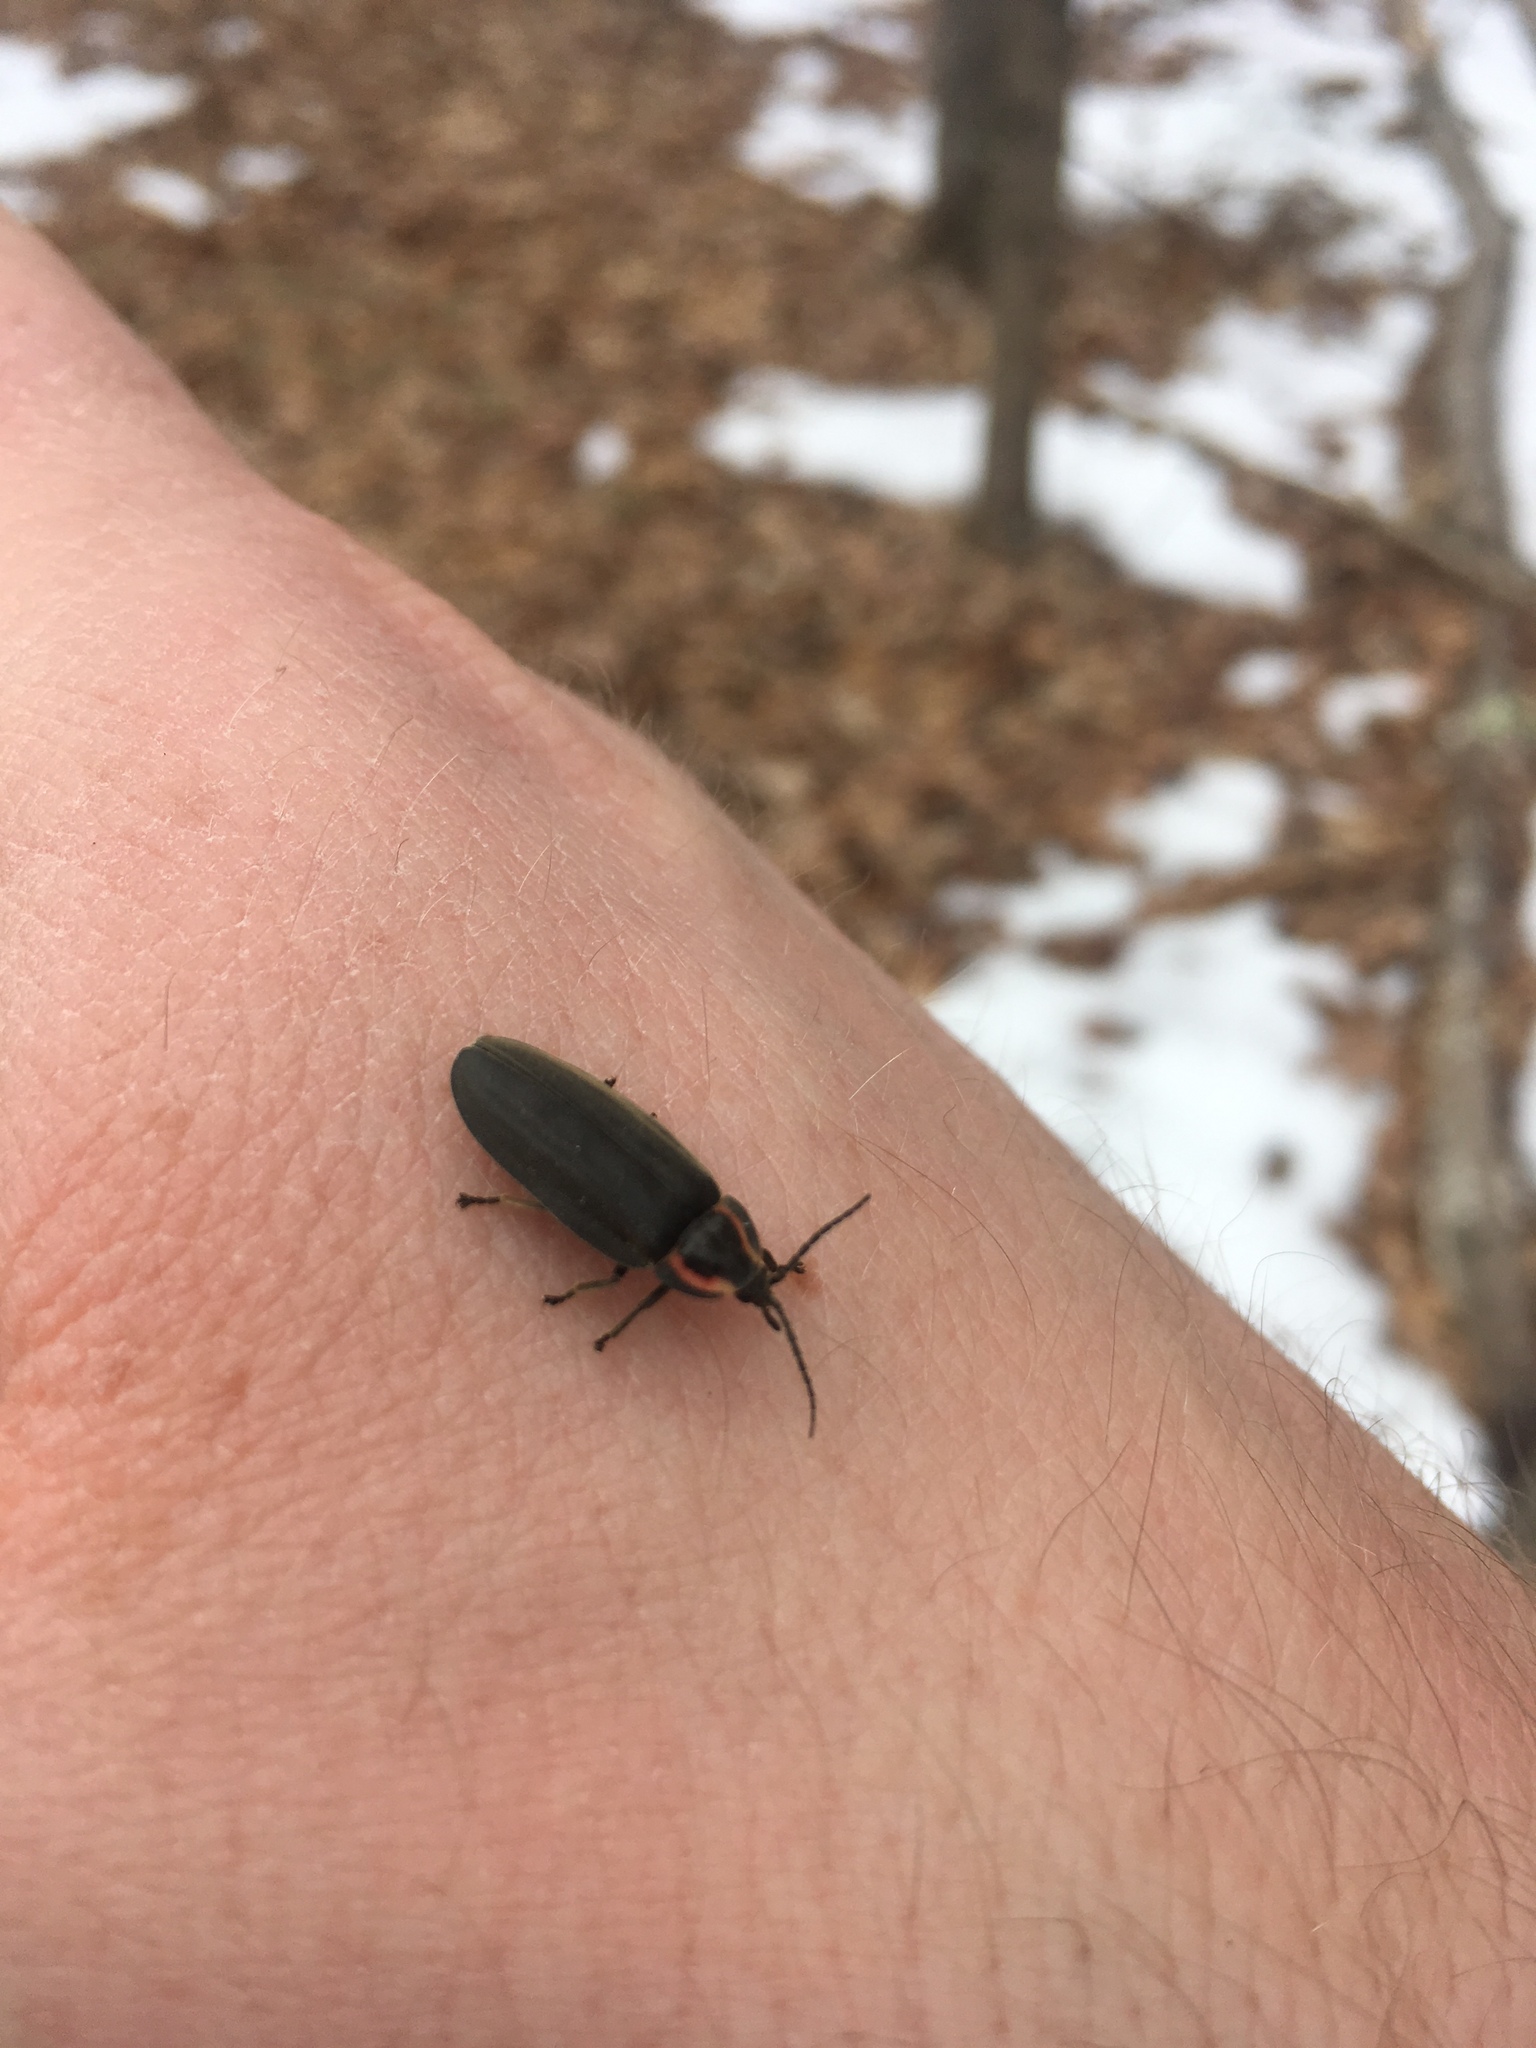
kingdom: Animalia
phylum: Arthropoda
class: Insecta
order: Coleoptera
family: Lampyridae
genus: Photinus
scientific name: Photinus corrusca
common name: Winter firefly
